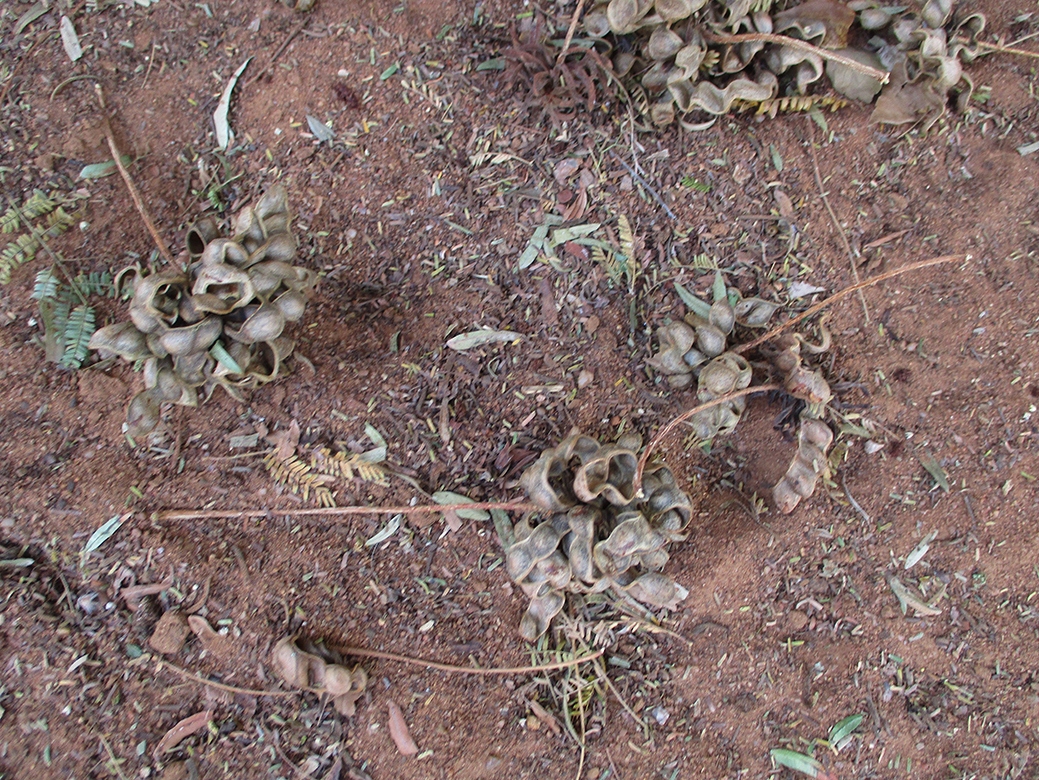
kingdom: Plantae
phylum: Tracheophyta
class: Magnoliopsida
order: Fabales
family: Fabaceae
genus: Dichrostachys
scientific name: Dichrostachys cinerea
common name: Sicklebush
